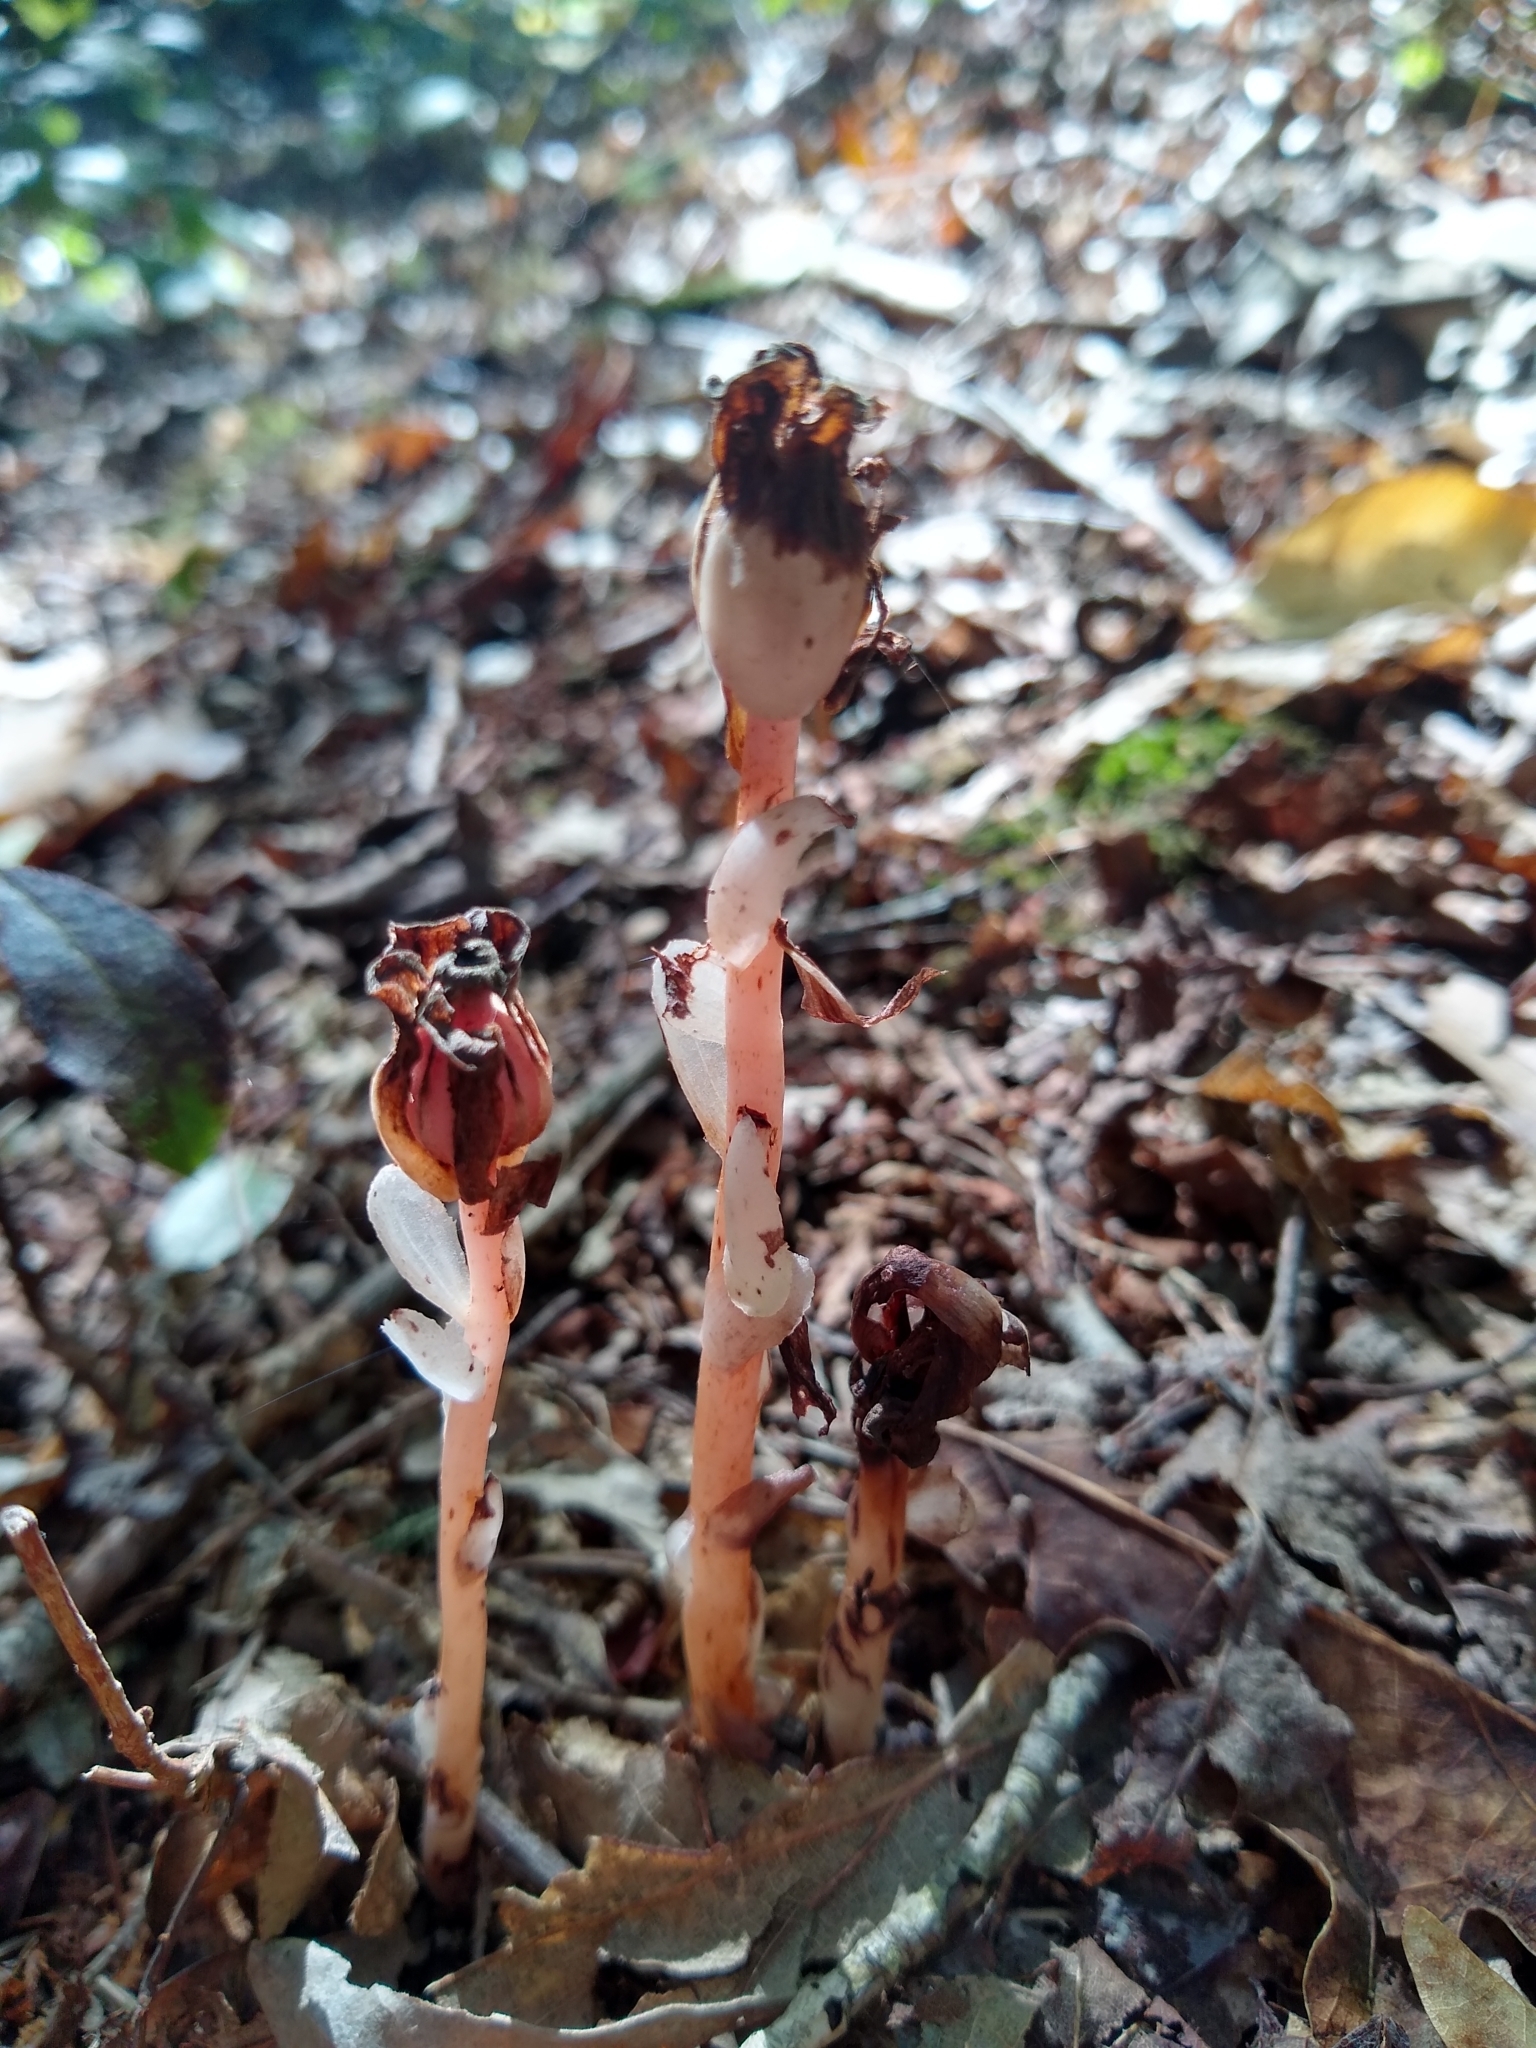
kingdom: Plantae
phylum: Tracheophyta
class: Magnoliopsida
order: Ericales
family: Ericaceae
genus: Monotropa
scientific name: Monotropa uniflora
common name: Convulsion root
